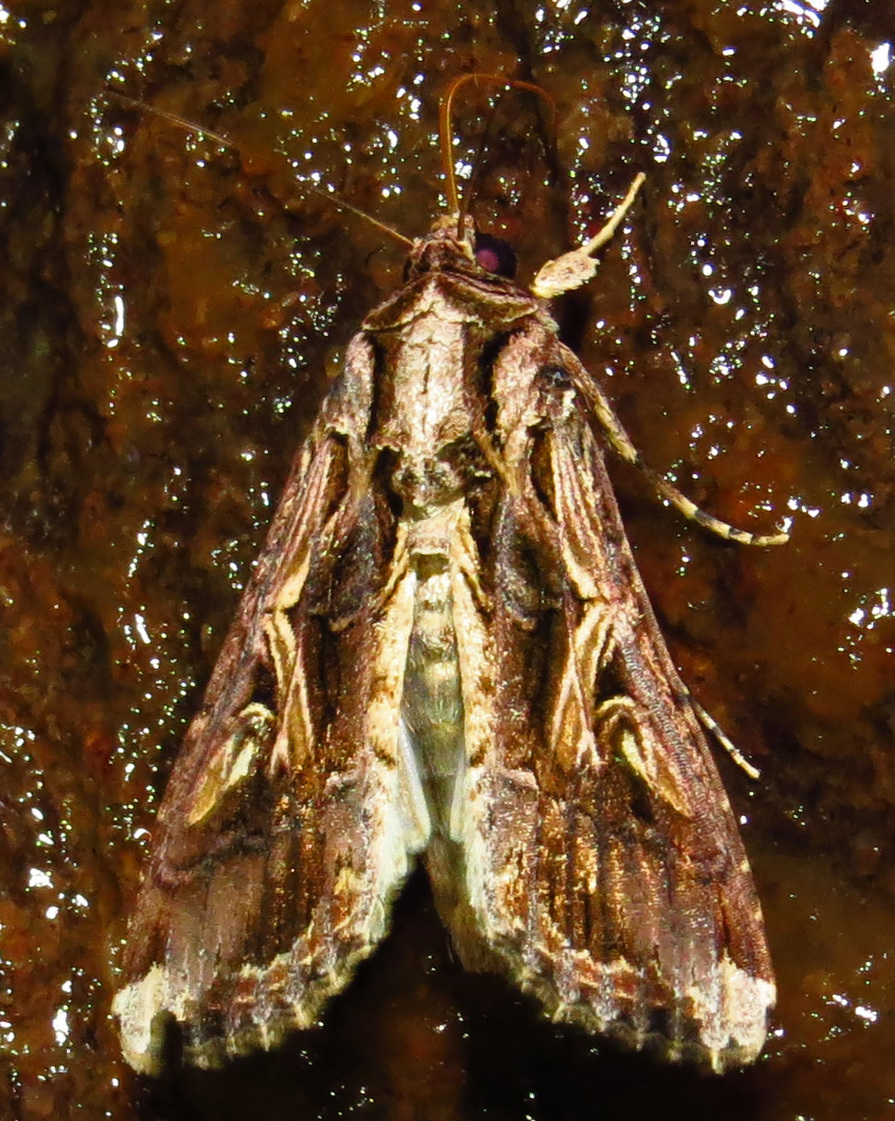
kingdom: Animalia
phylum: Arthropoda
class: Insecta
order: Lepidoptera
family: Noctuidae
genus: Spodoptera
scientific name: Spodoptera dolichos
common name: Sweetpotato armyworm
